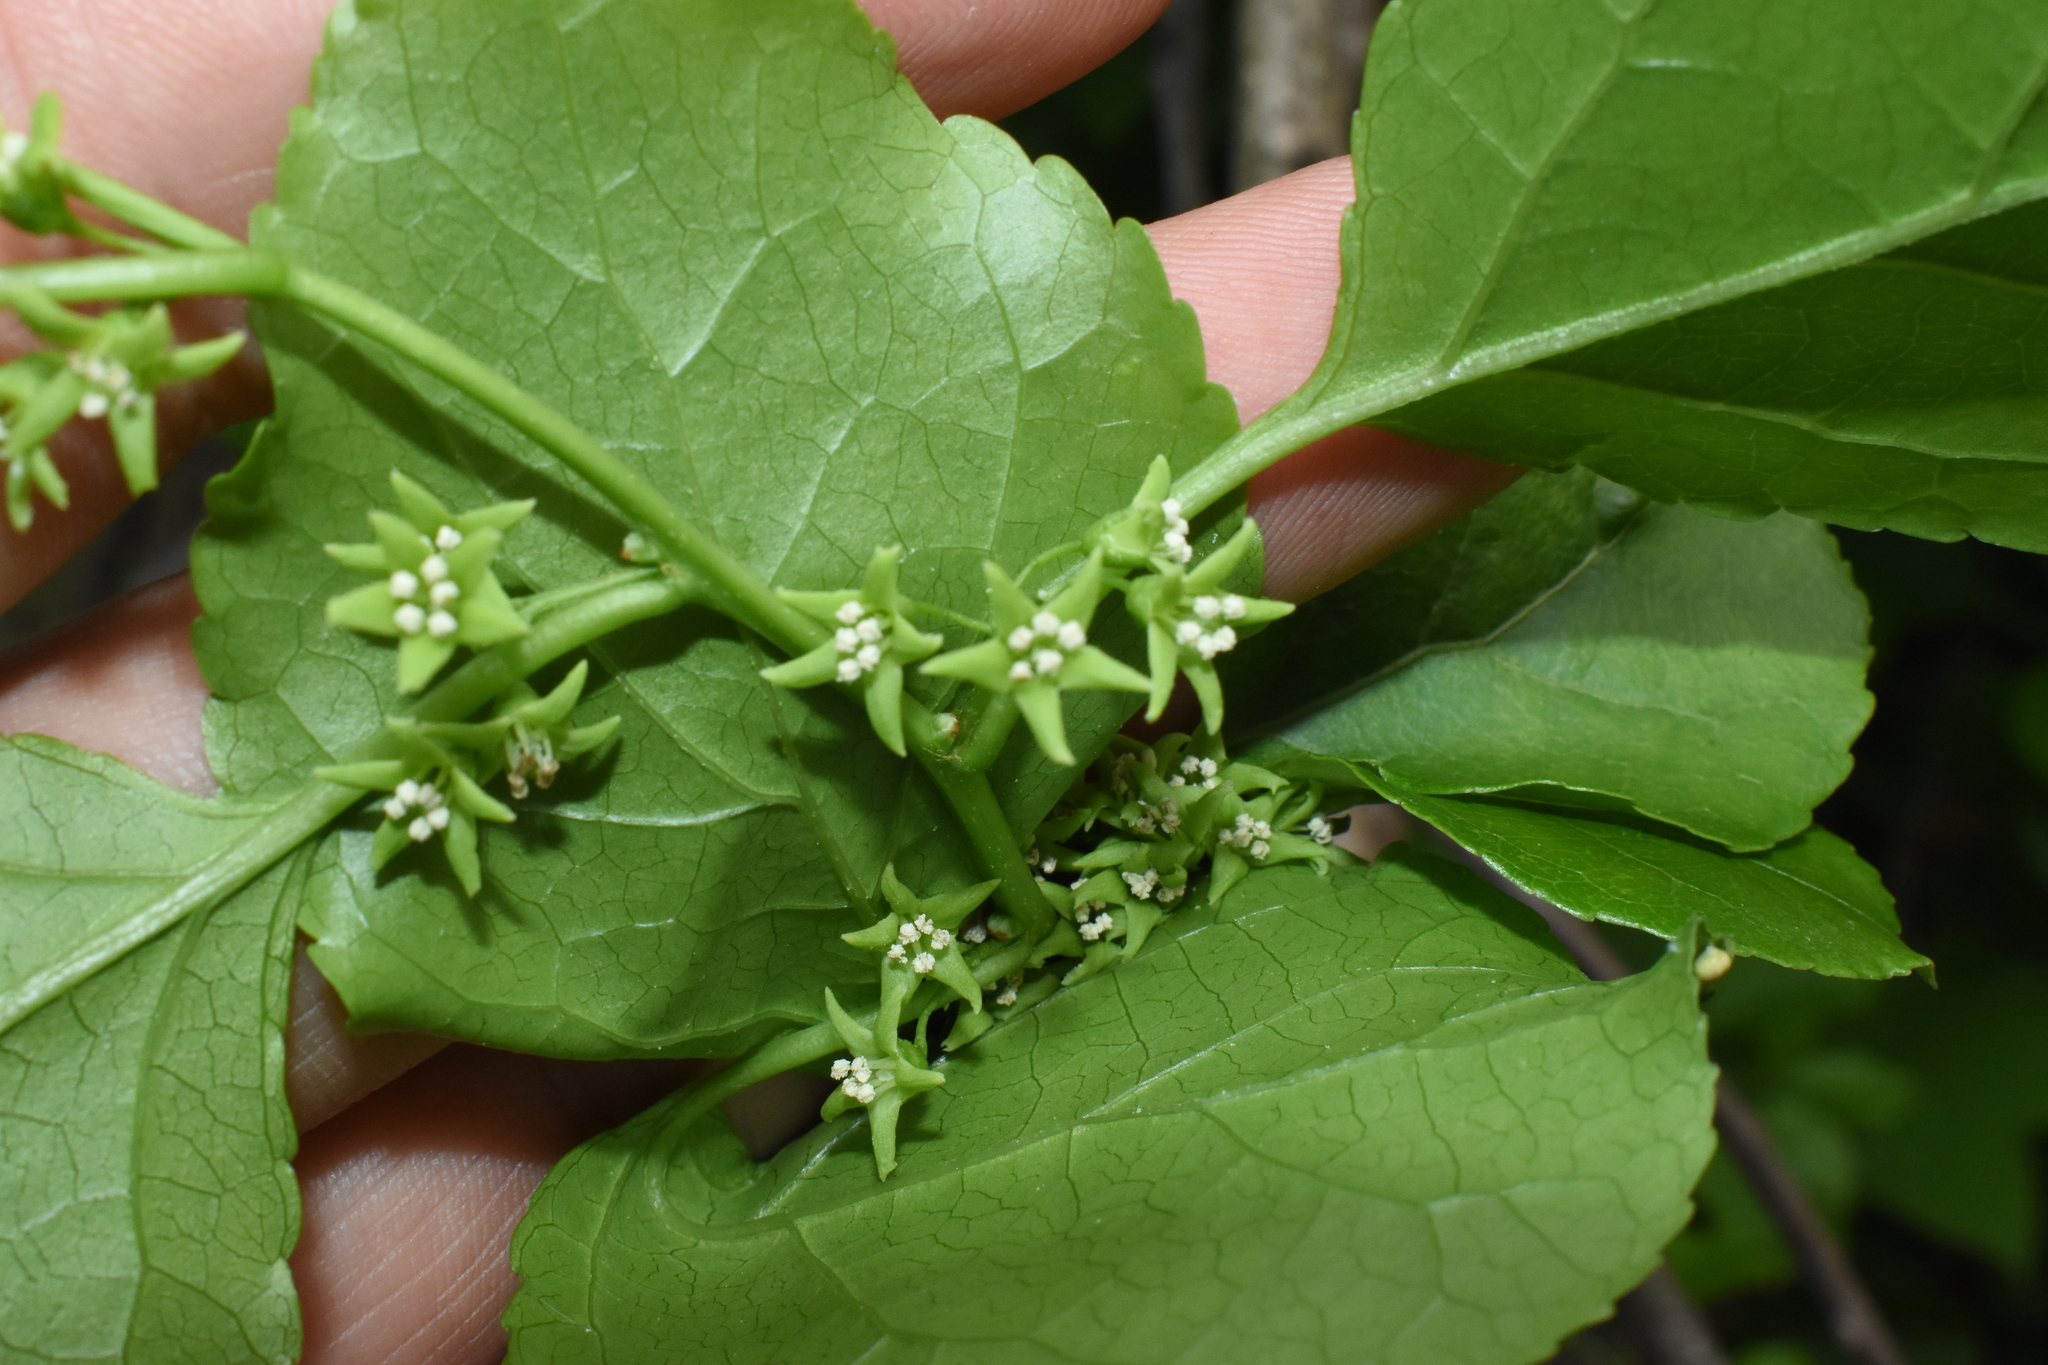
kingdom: Plantae
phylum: Tracheophyta
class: Magnoliopsida
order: Celastrales
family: Celastraceae
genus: Celastrus
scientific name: Celastrus orbiculatus
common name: Oriental bittersweet
